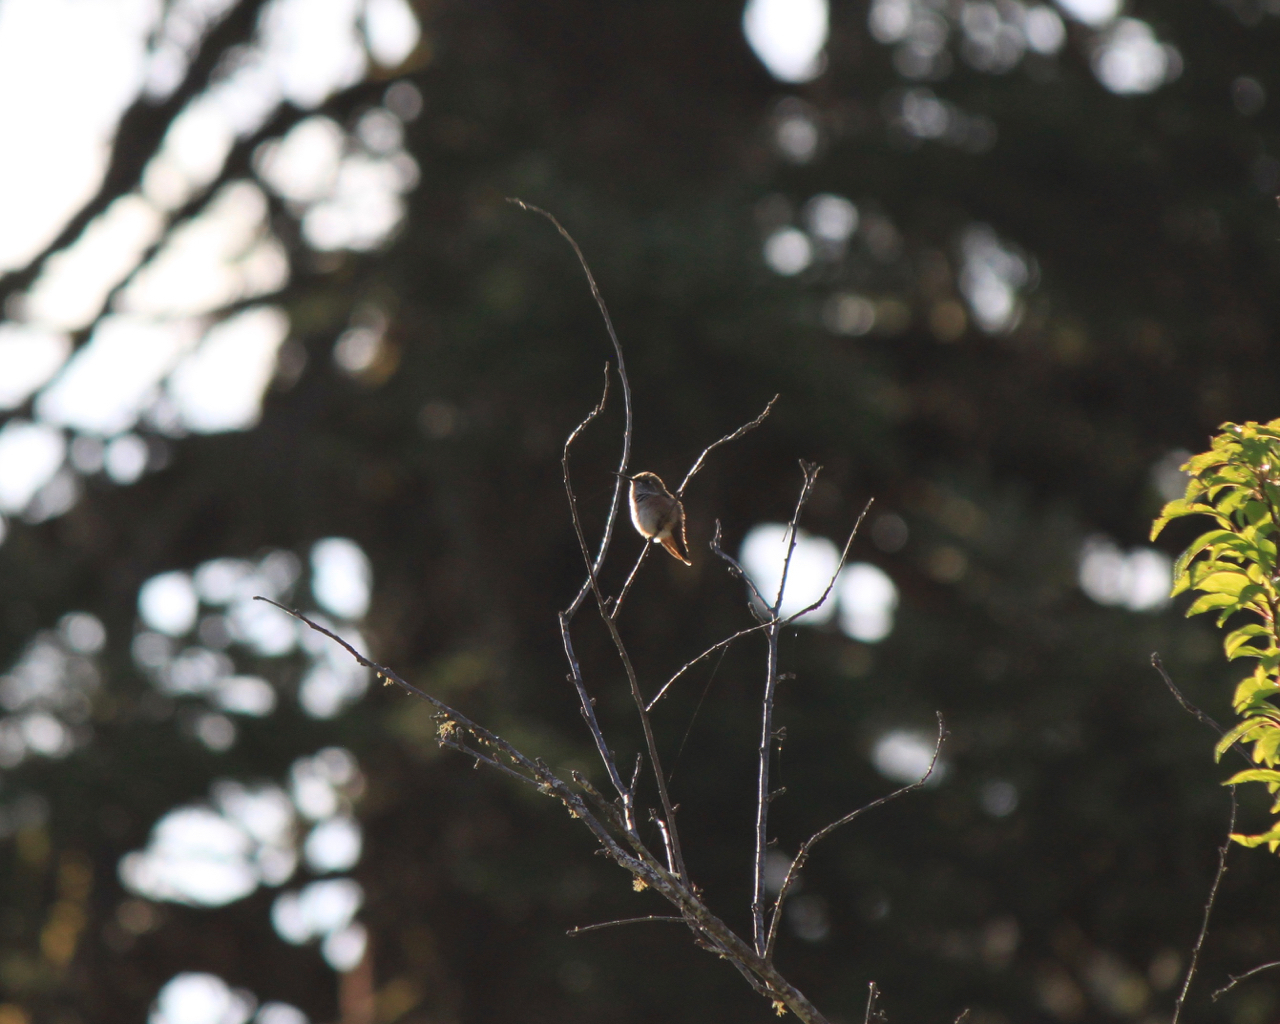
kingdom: Animalia
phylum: Chordata
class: Aves
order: Apodiformes
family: Trochilidae
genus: Selasphorus
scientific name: Selasphorus rufus
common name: Rufous hummingbird
